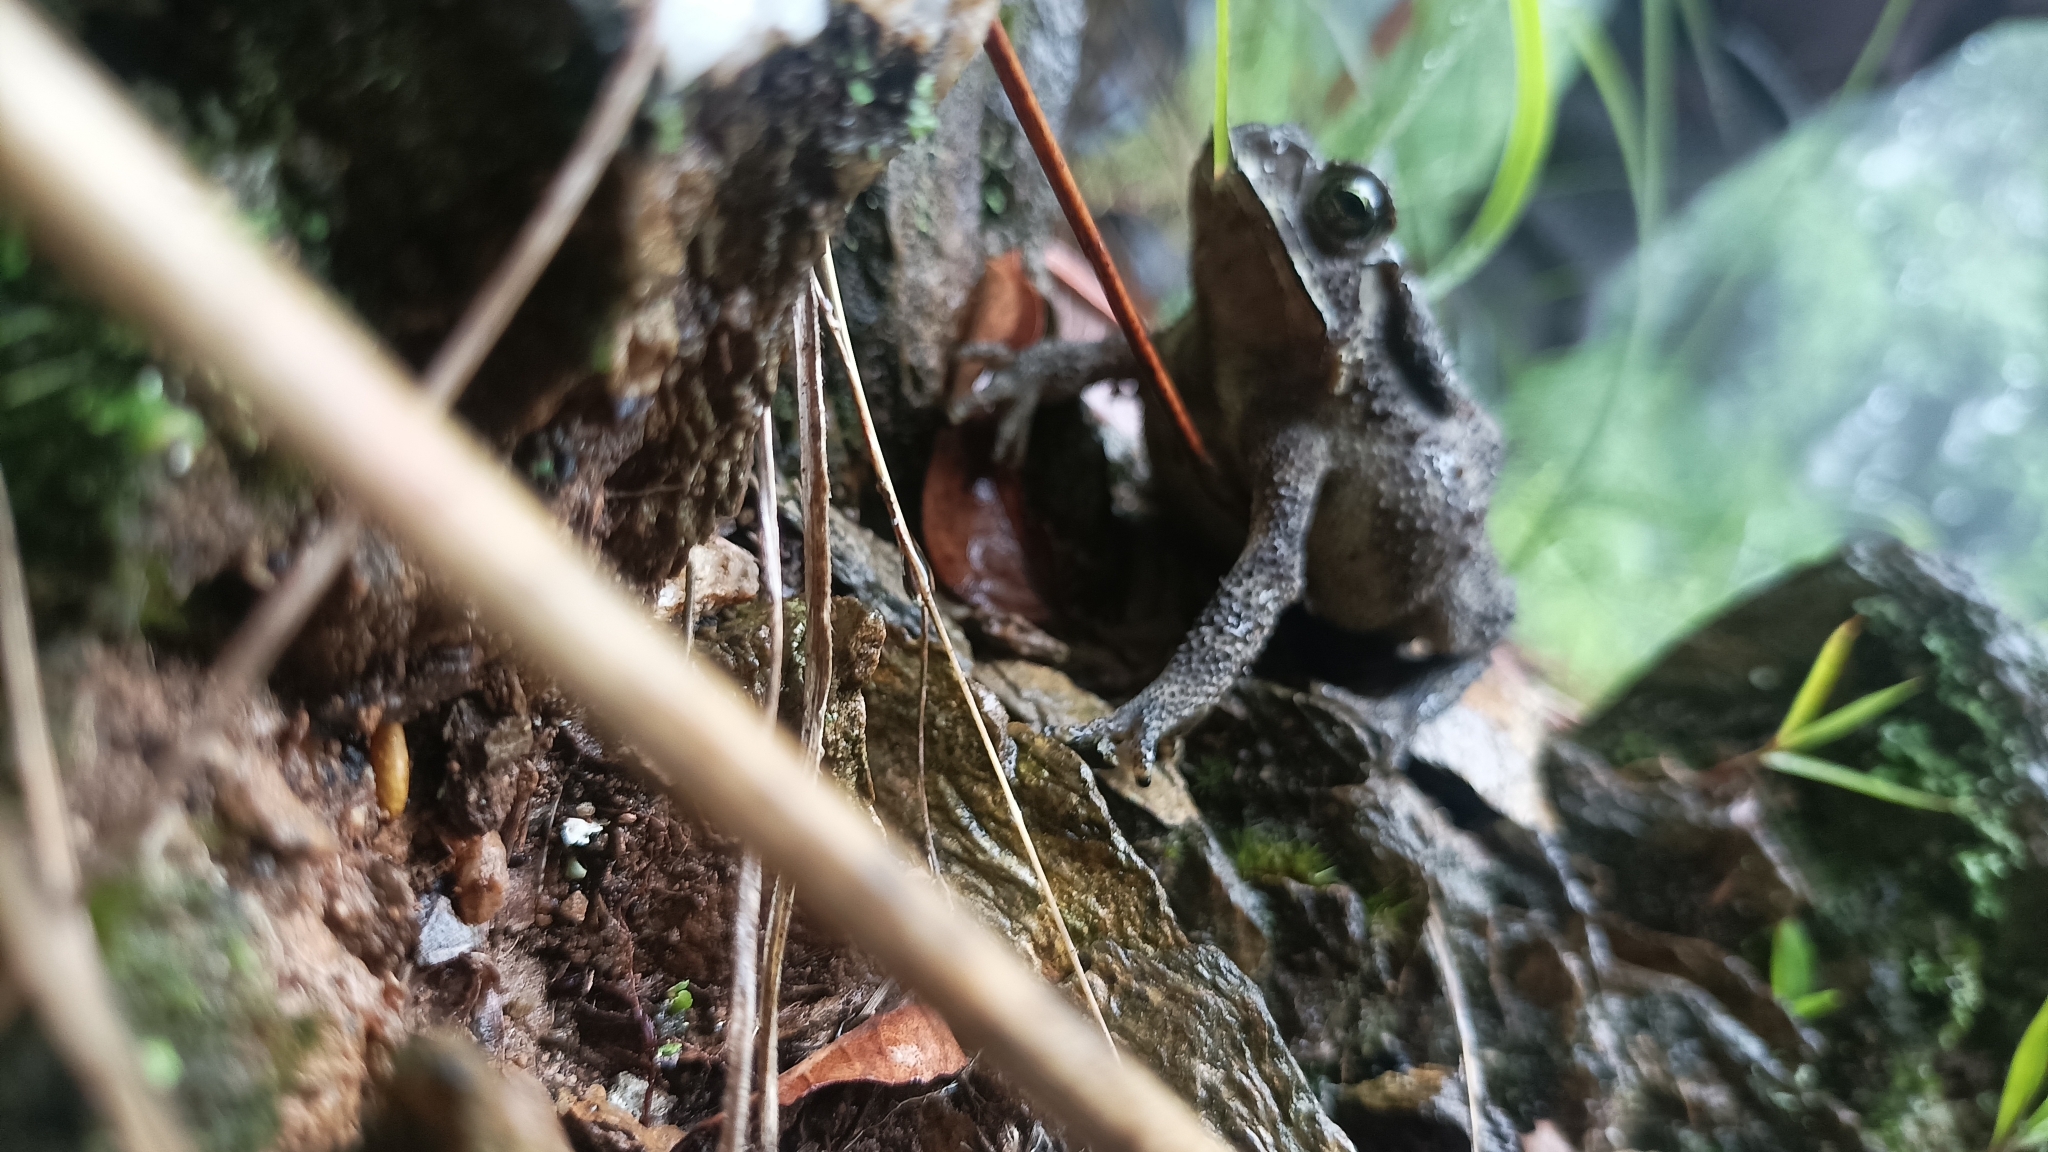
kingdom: Animalia
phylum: Chordata
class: Amphibia
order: Anura
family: Bufonidae
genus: Duttaphrynus
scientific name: Duttaphrynus melanostictus
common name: Common sunda toad
